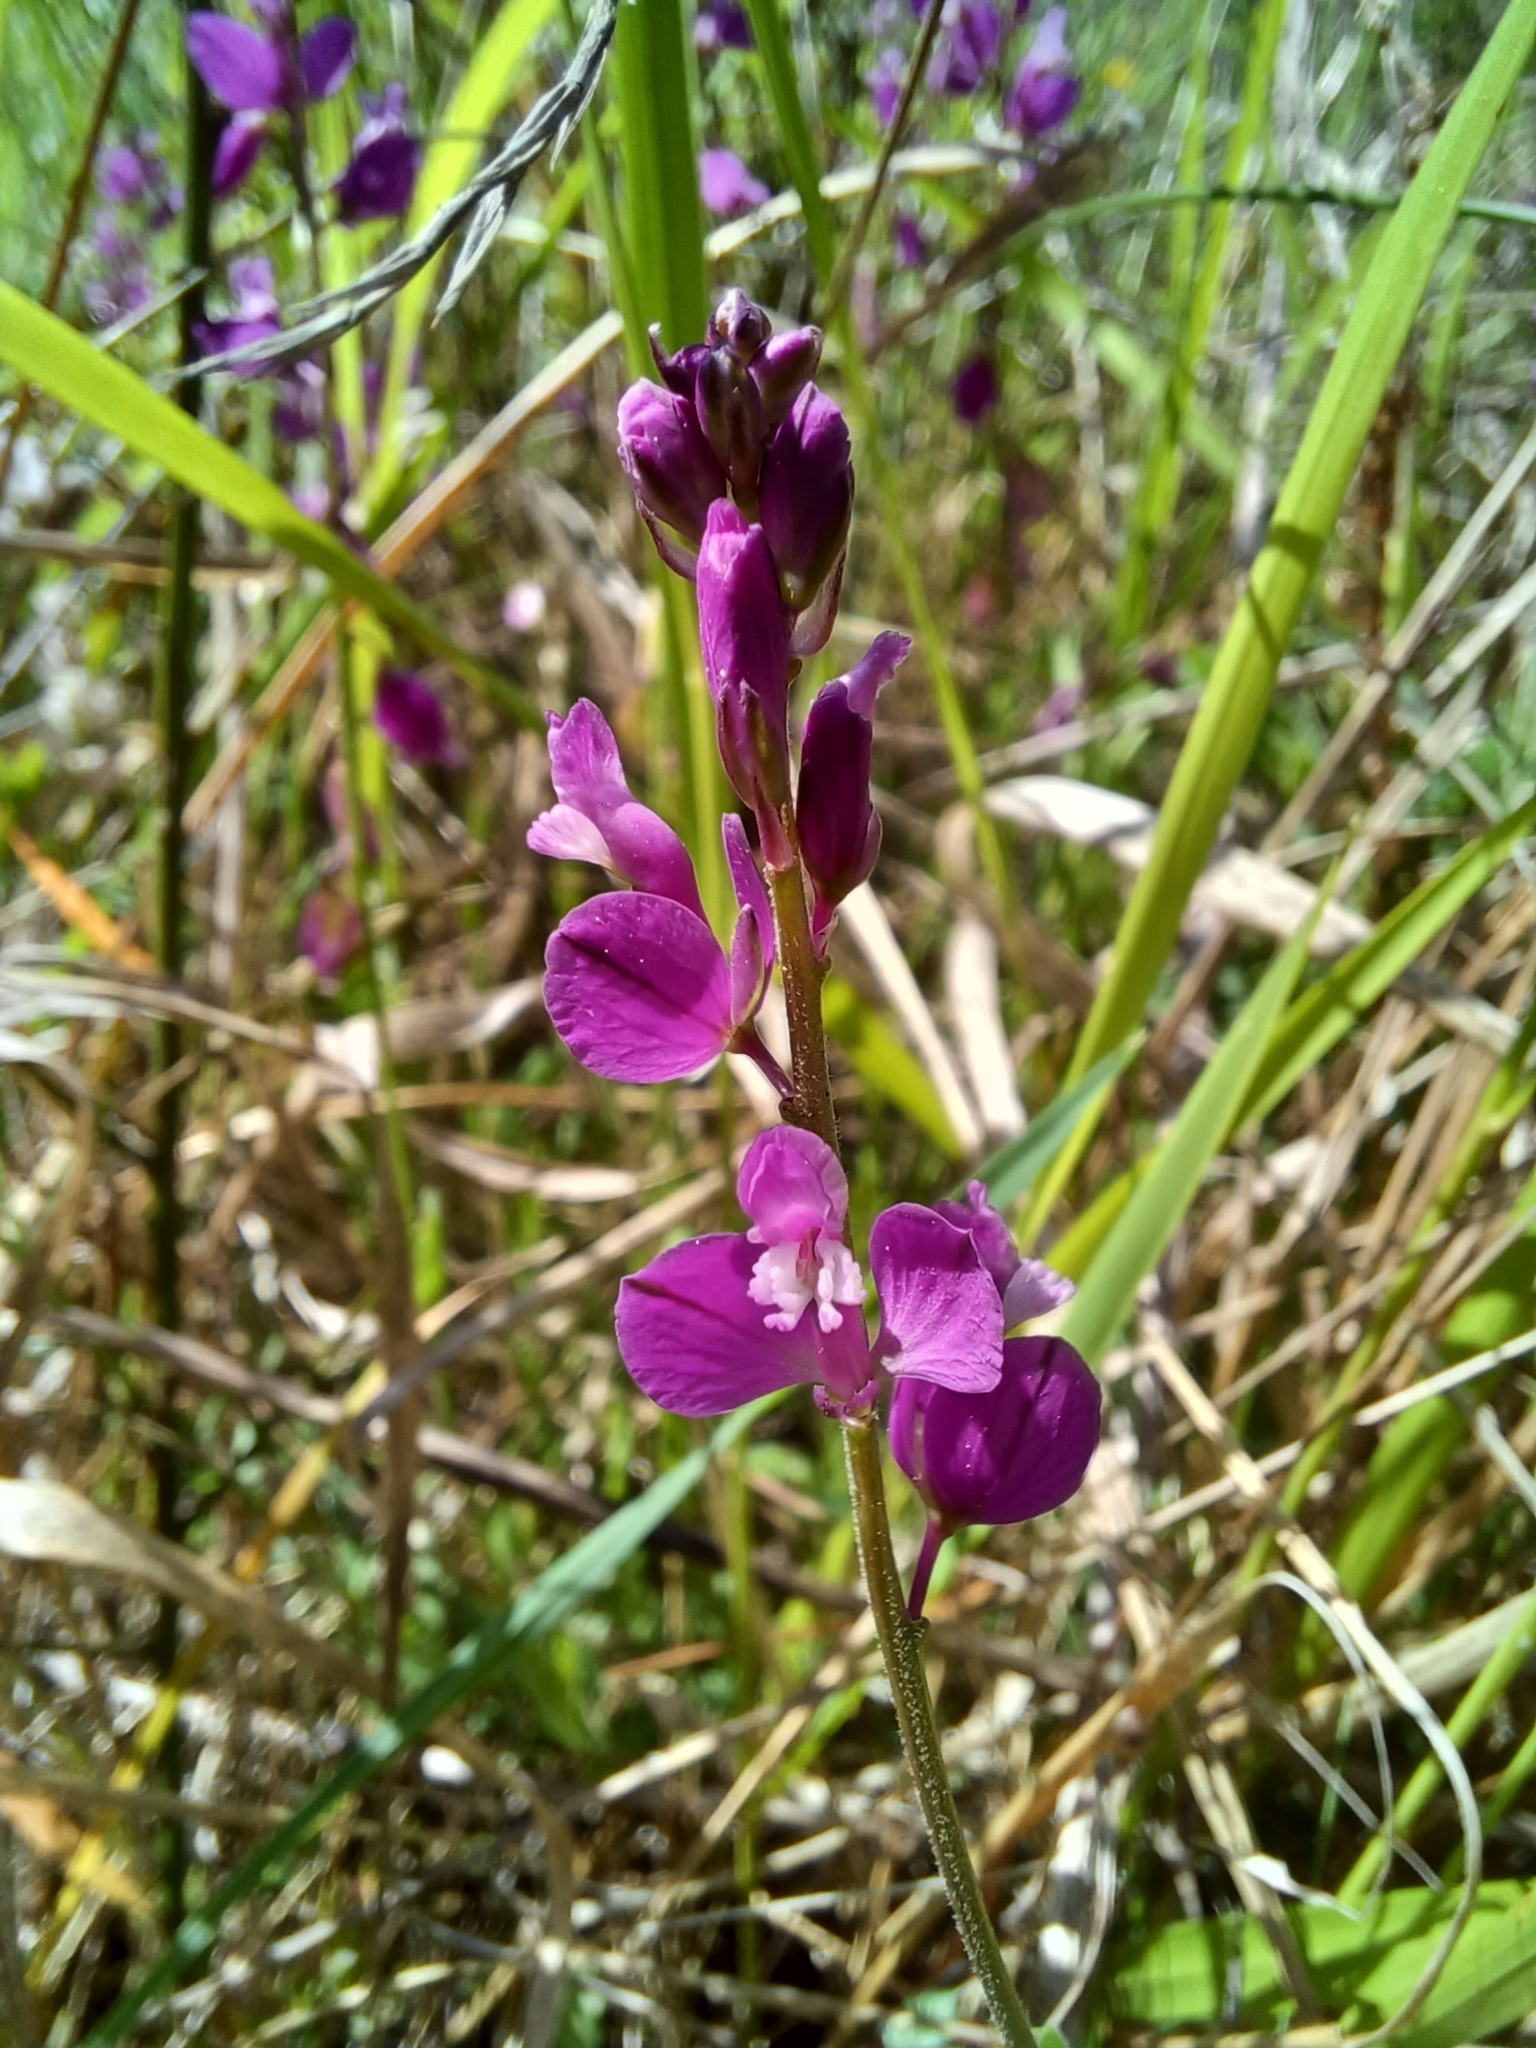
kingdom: Plantae
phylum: Tracheophyta
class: Magnoliopsida
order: Fabales
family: Polygalaceae
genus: Polygala
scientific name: Polygala nicaeensis
